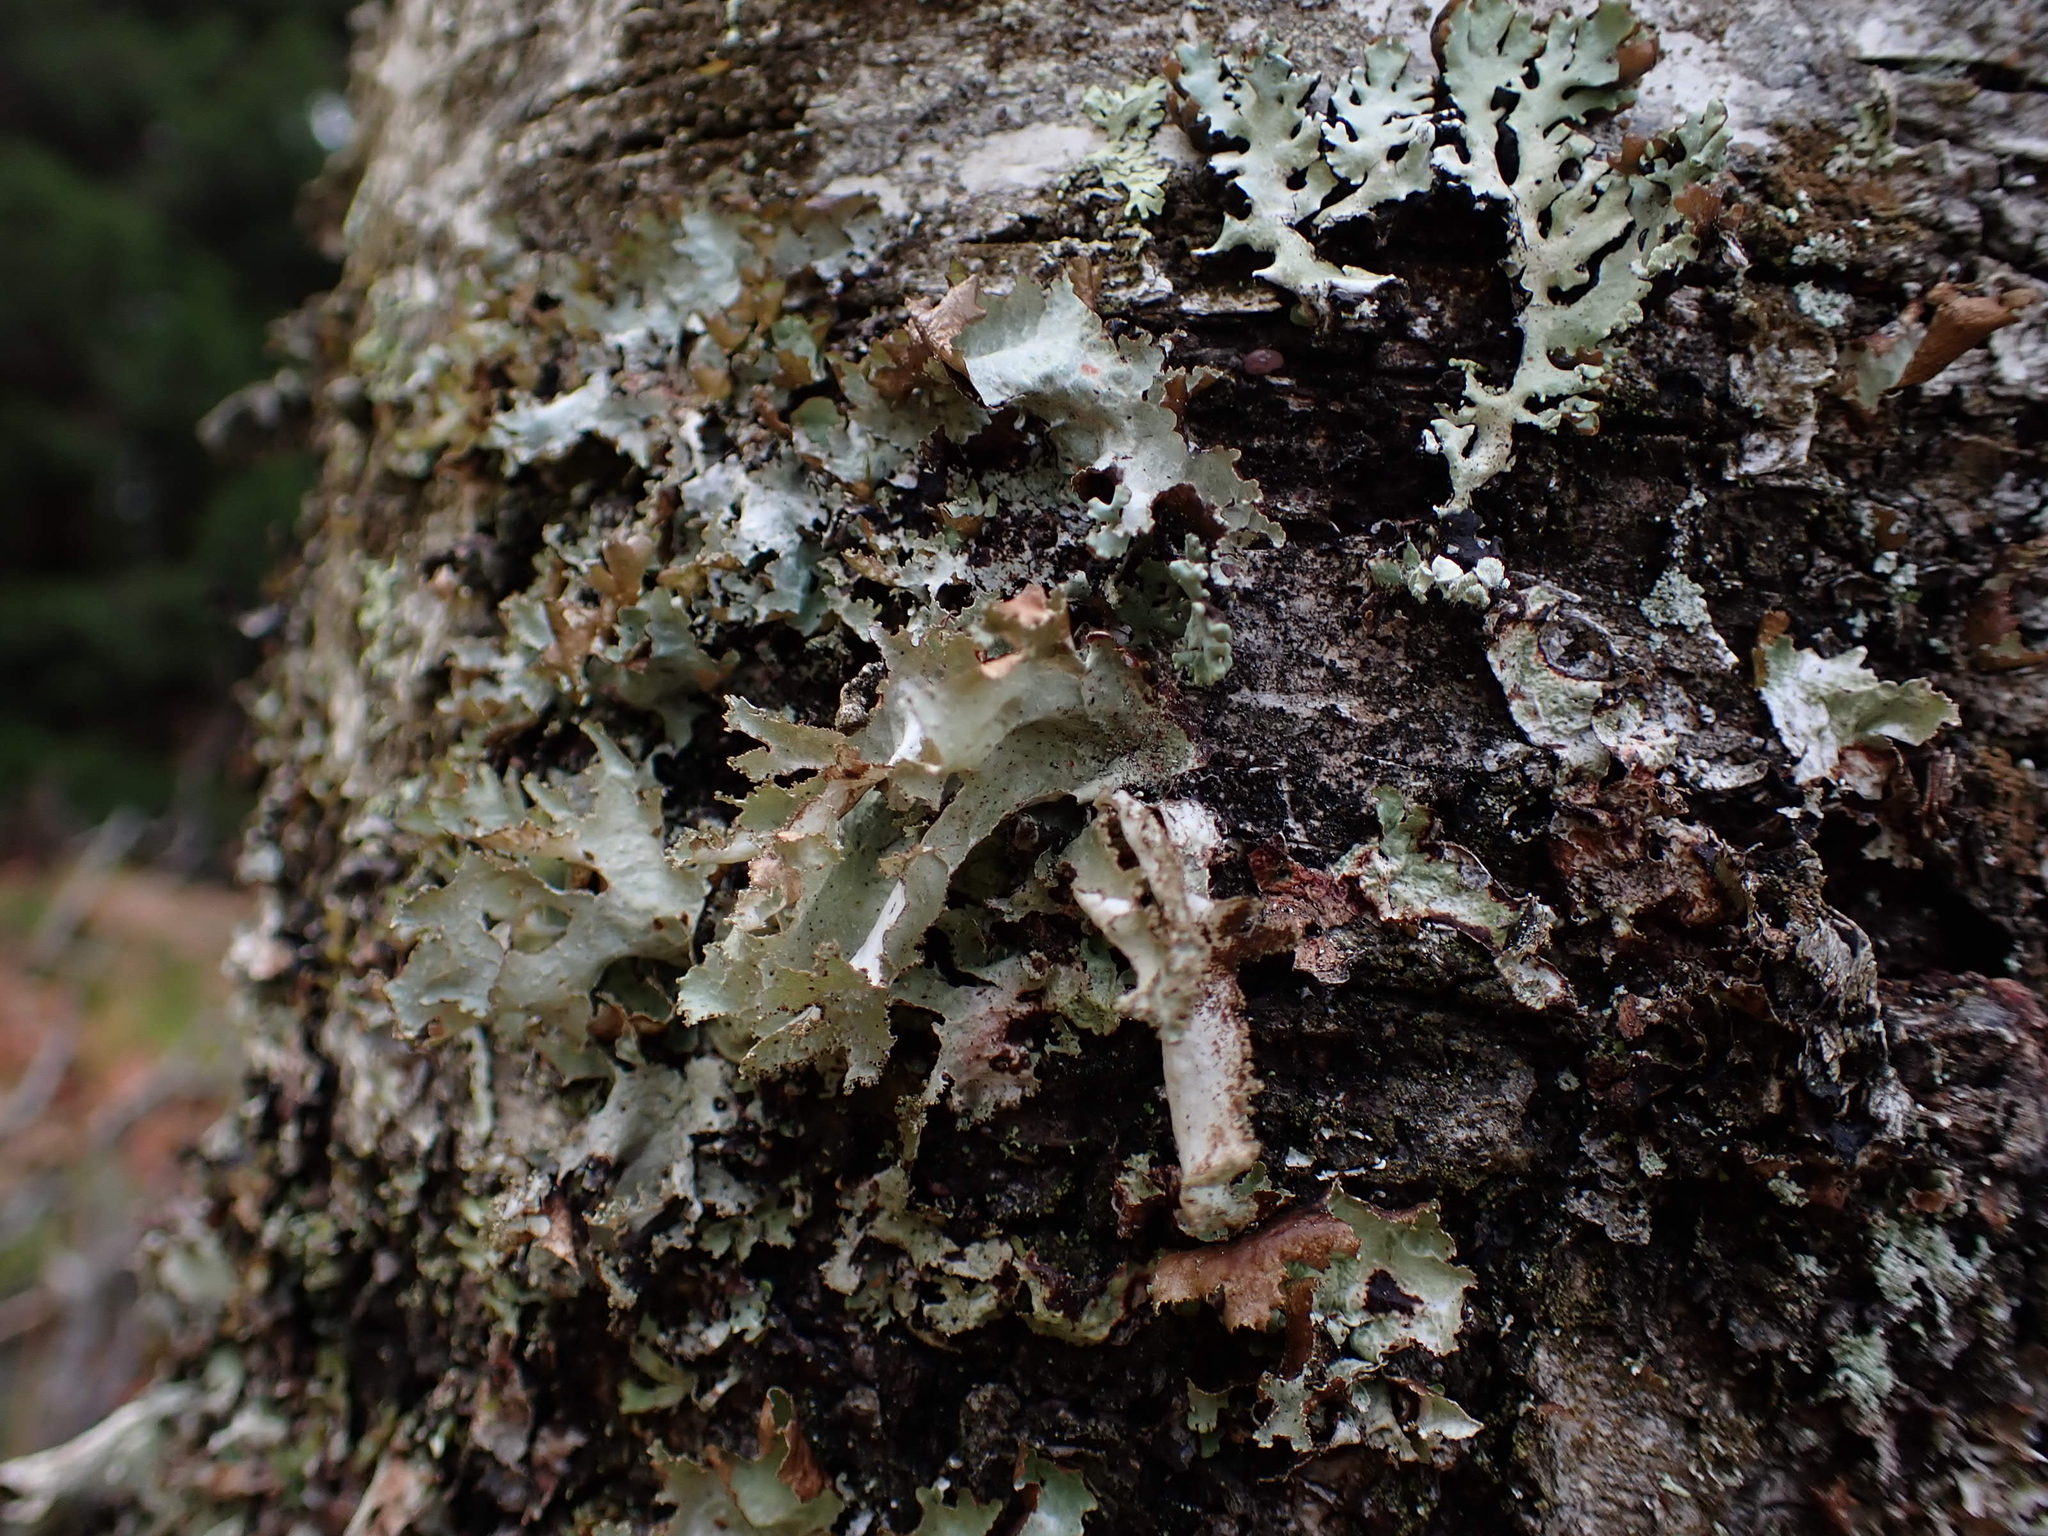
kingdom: Fungi
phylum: Ascomycota
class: Lecanoromycetes
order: Lecanorales
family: Parmeliaceae
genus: Platismatia
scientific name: Platismatia glauca
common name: Varied rag lichen
